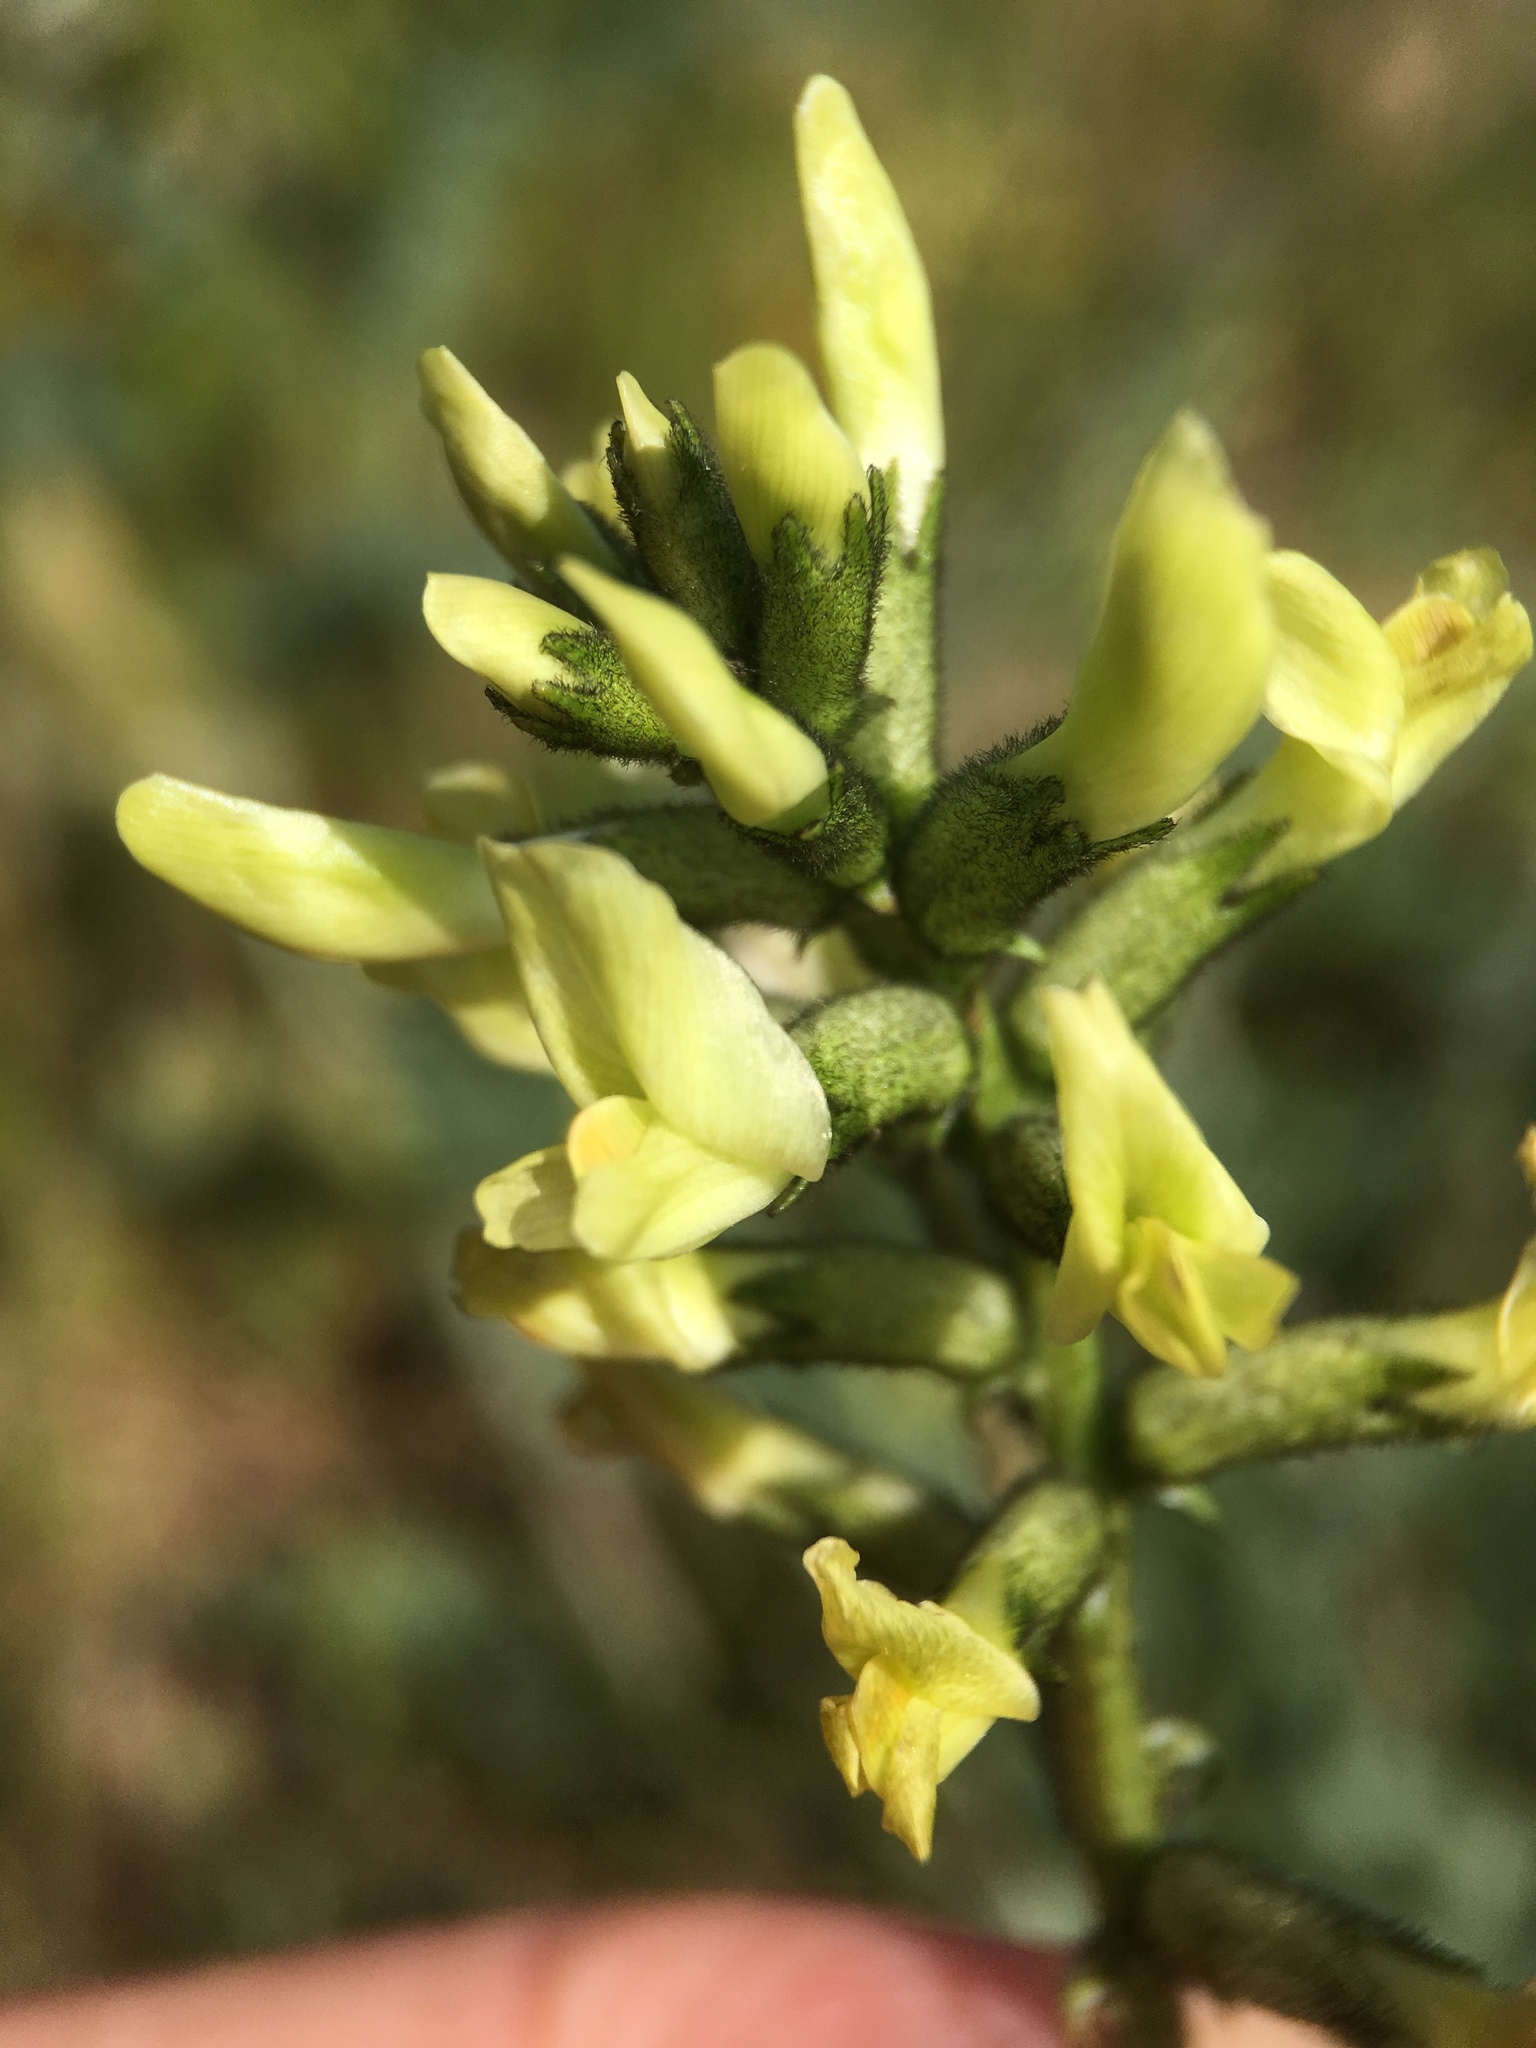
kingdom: Plantae
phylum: Tracheophyta
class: Magnoliopsida
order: Fabales
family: Fabaceae
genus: Astragalus
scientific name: Astragalus lentiginosus
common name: Freckled milkvetch
